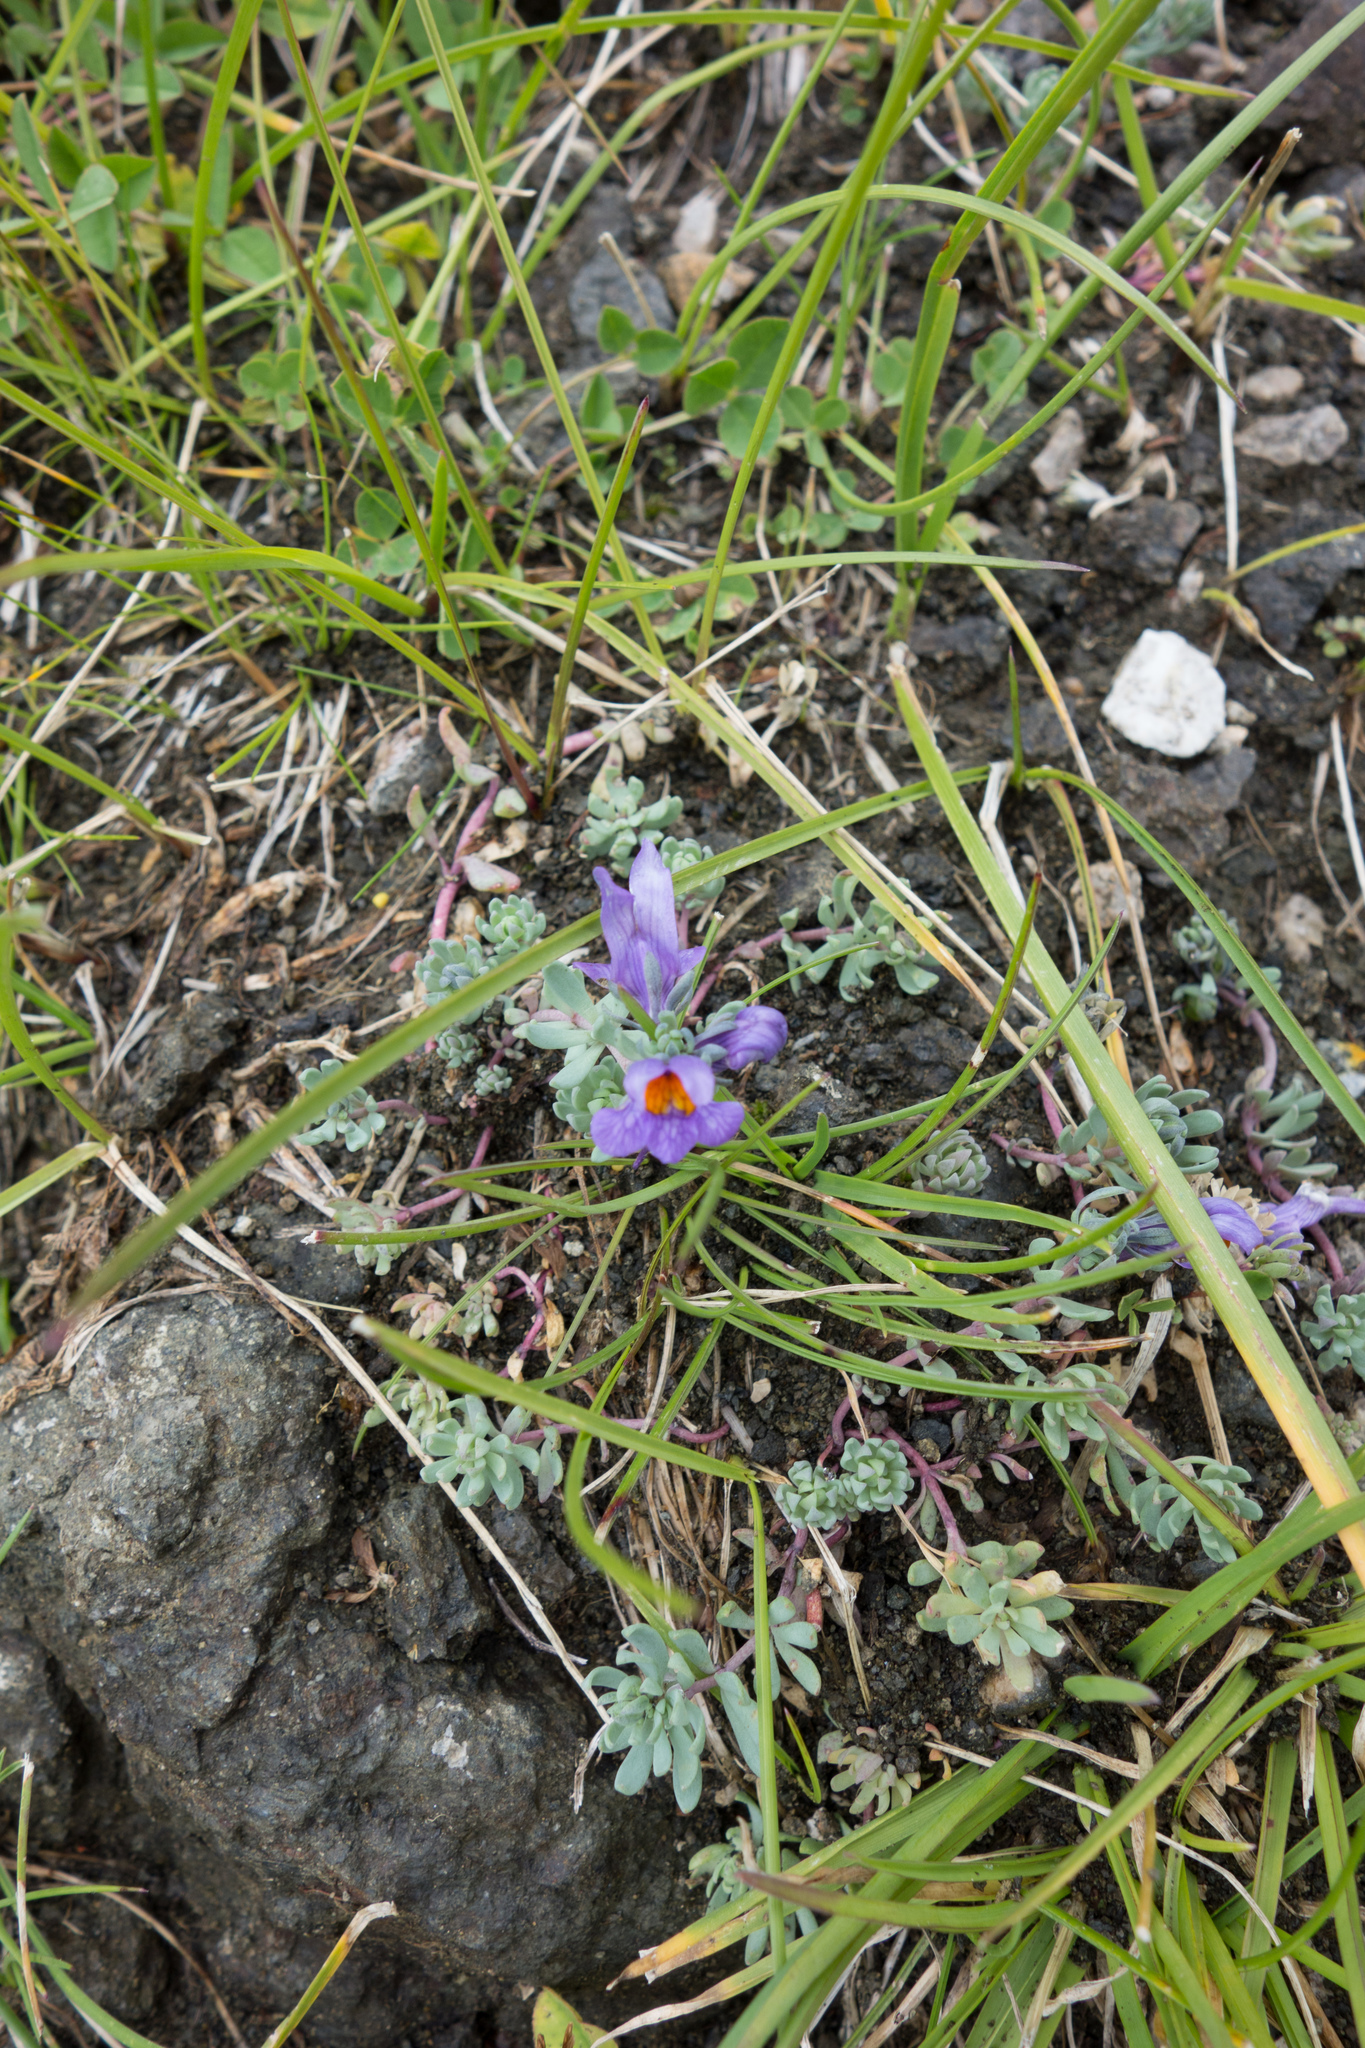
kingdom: Plantae
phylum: Tracheophyta
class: Magnoliopsida
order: Lamiales
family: Plantaginaceae
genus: Linaria
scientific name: Linaria alpina
